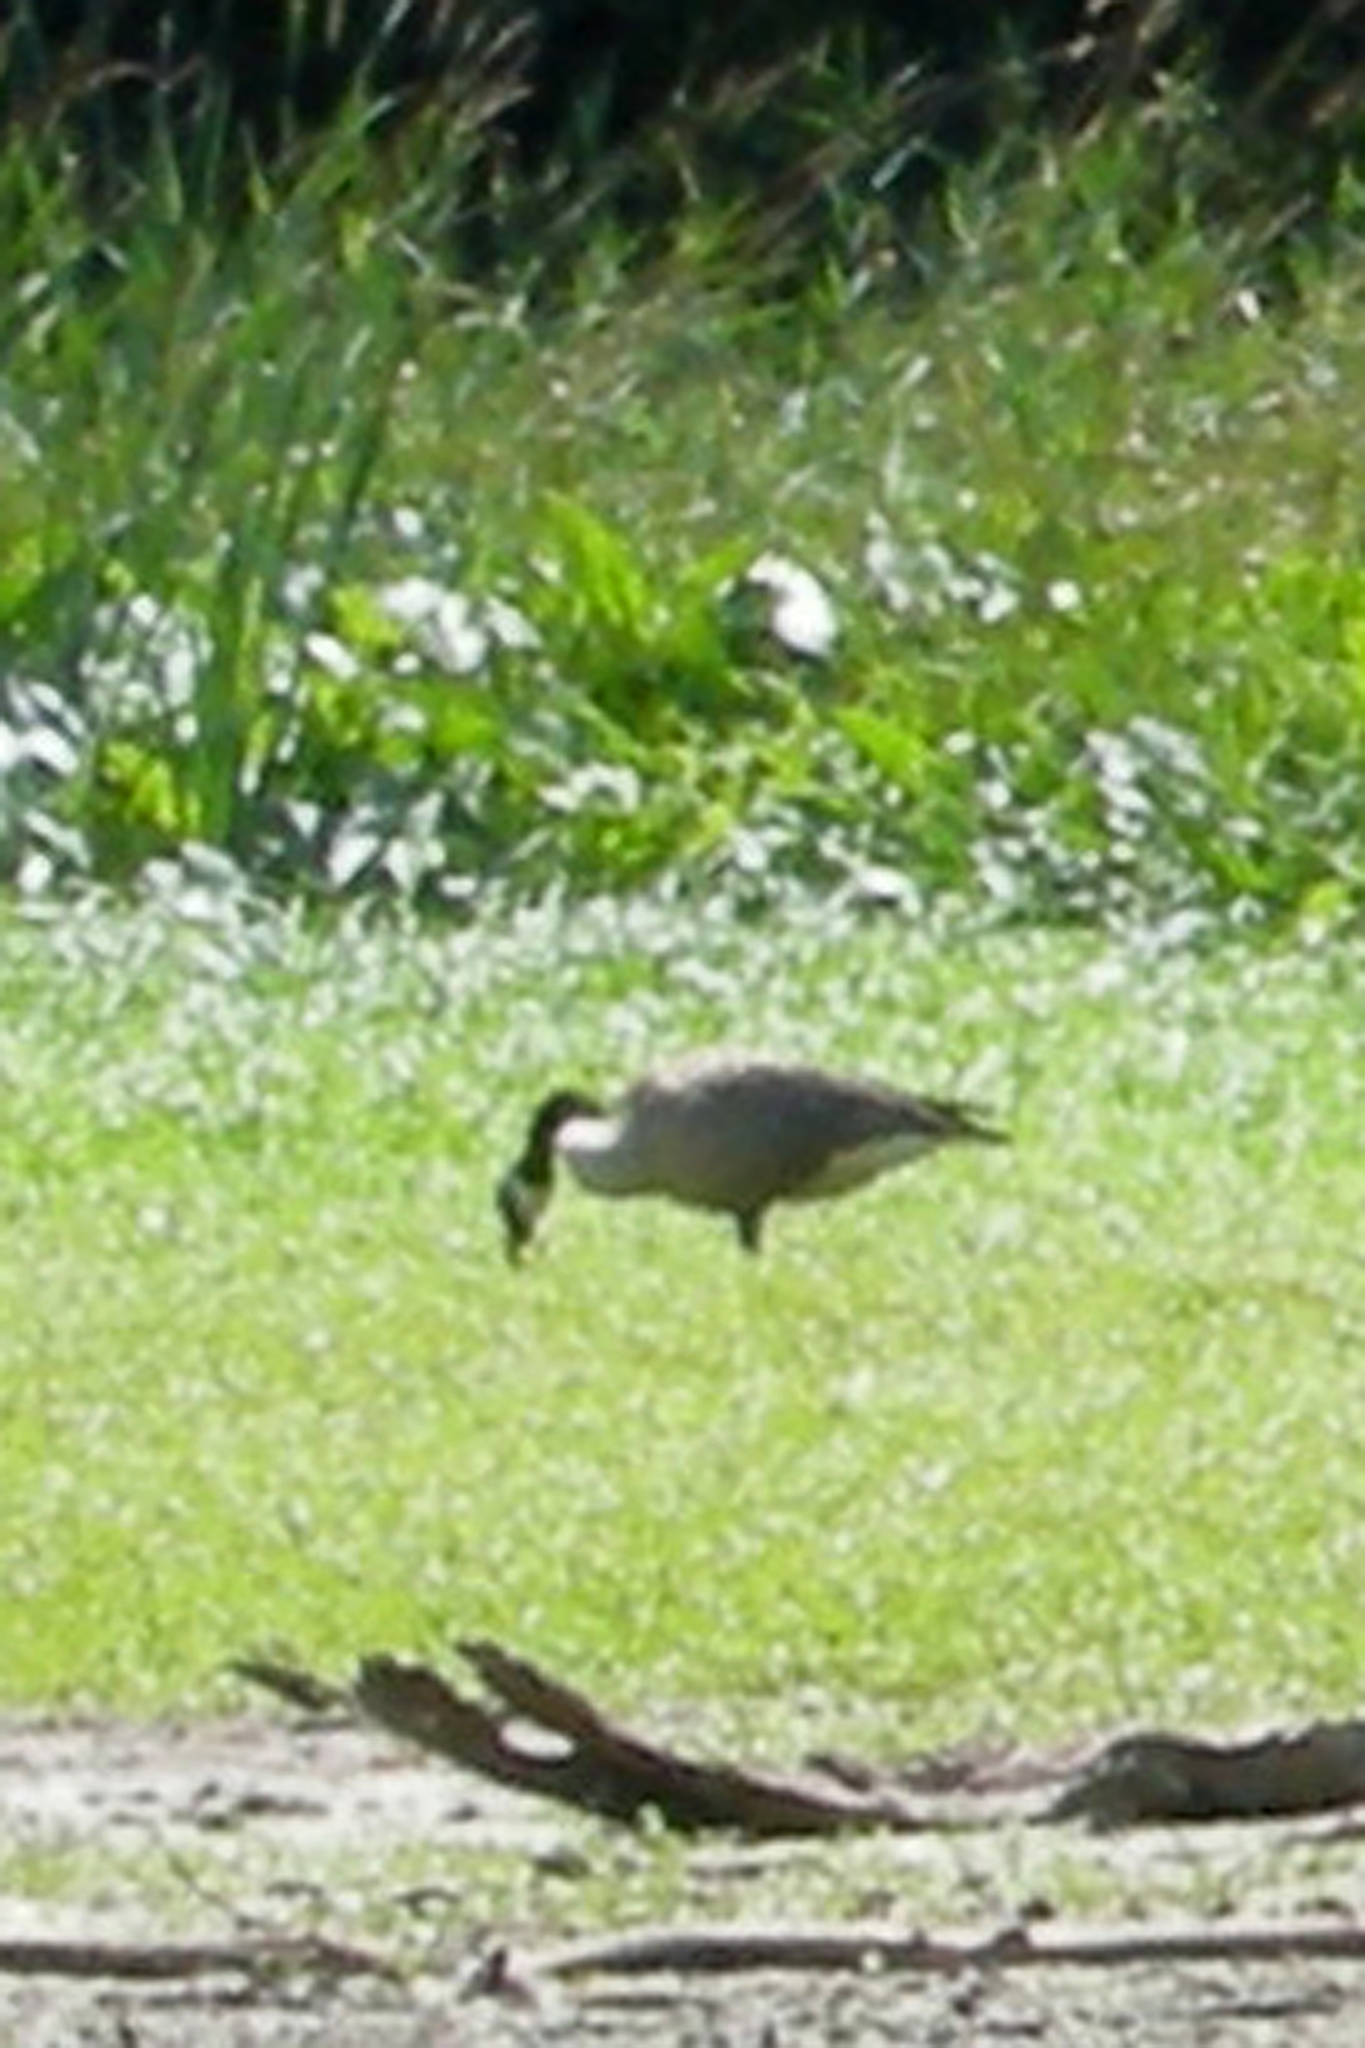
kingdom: Animalia
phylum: Chordata
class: Aves
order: Anseriformes
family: Anatidae
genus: Branta
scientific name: Branta canadensis
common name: Canada goose
